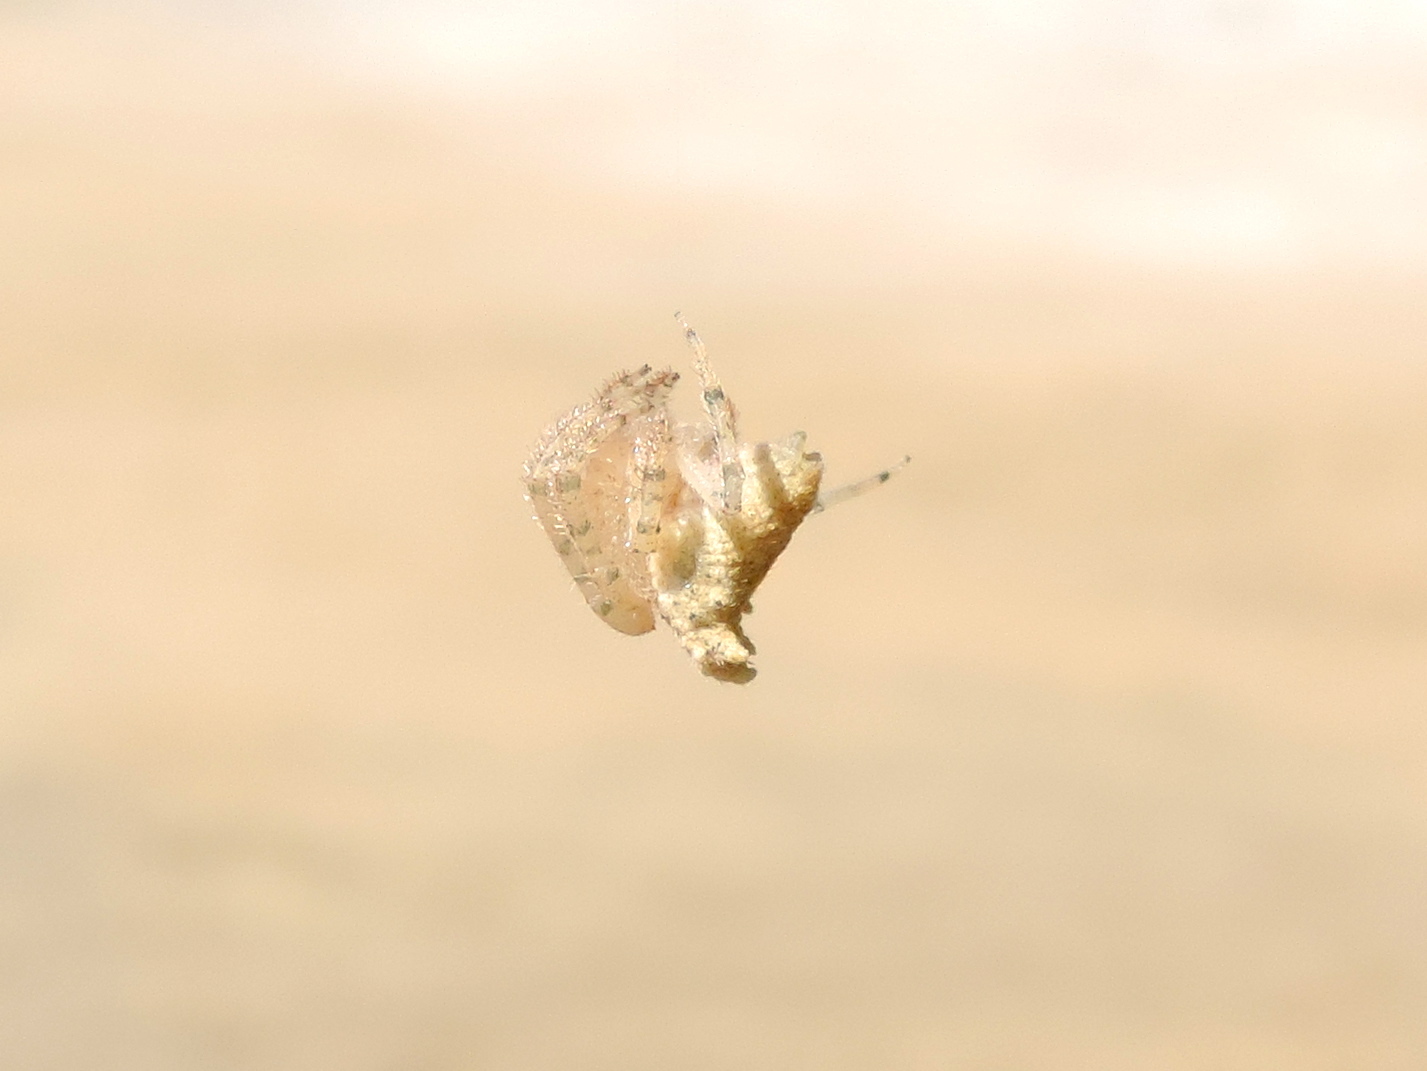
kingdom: Animalia
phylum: Arthropoda
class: Arachnida
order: Araneae
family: Araneidae
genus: Kaira
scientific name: Kaira
